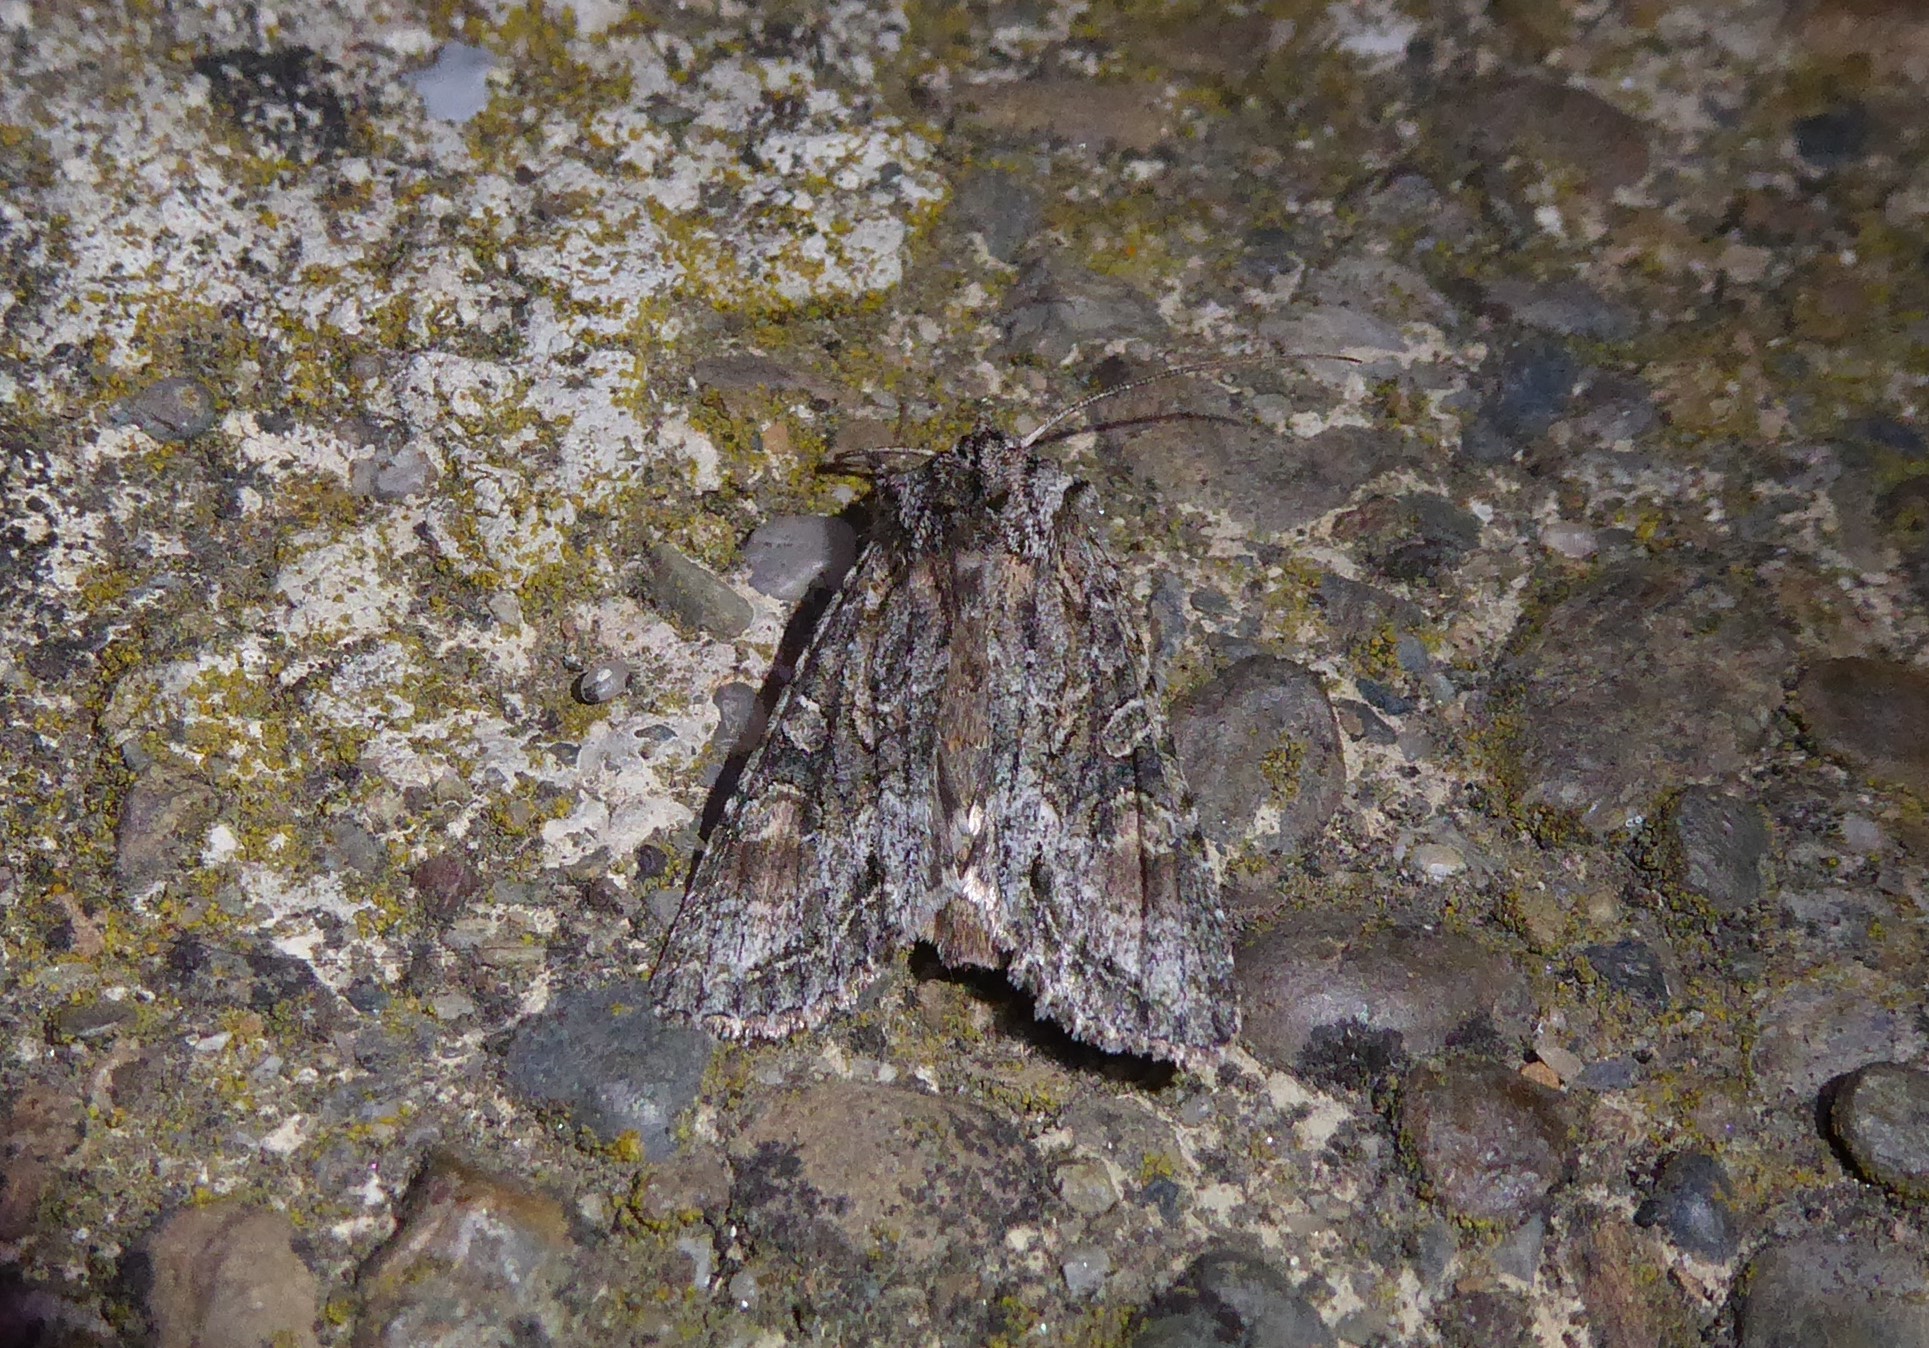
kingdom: Animalia
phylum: Arthropoda
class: Insecta
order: Lepidoptera
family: Noctuidae
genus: Ichneutica
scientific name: Ichneutica mutans
